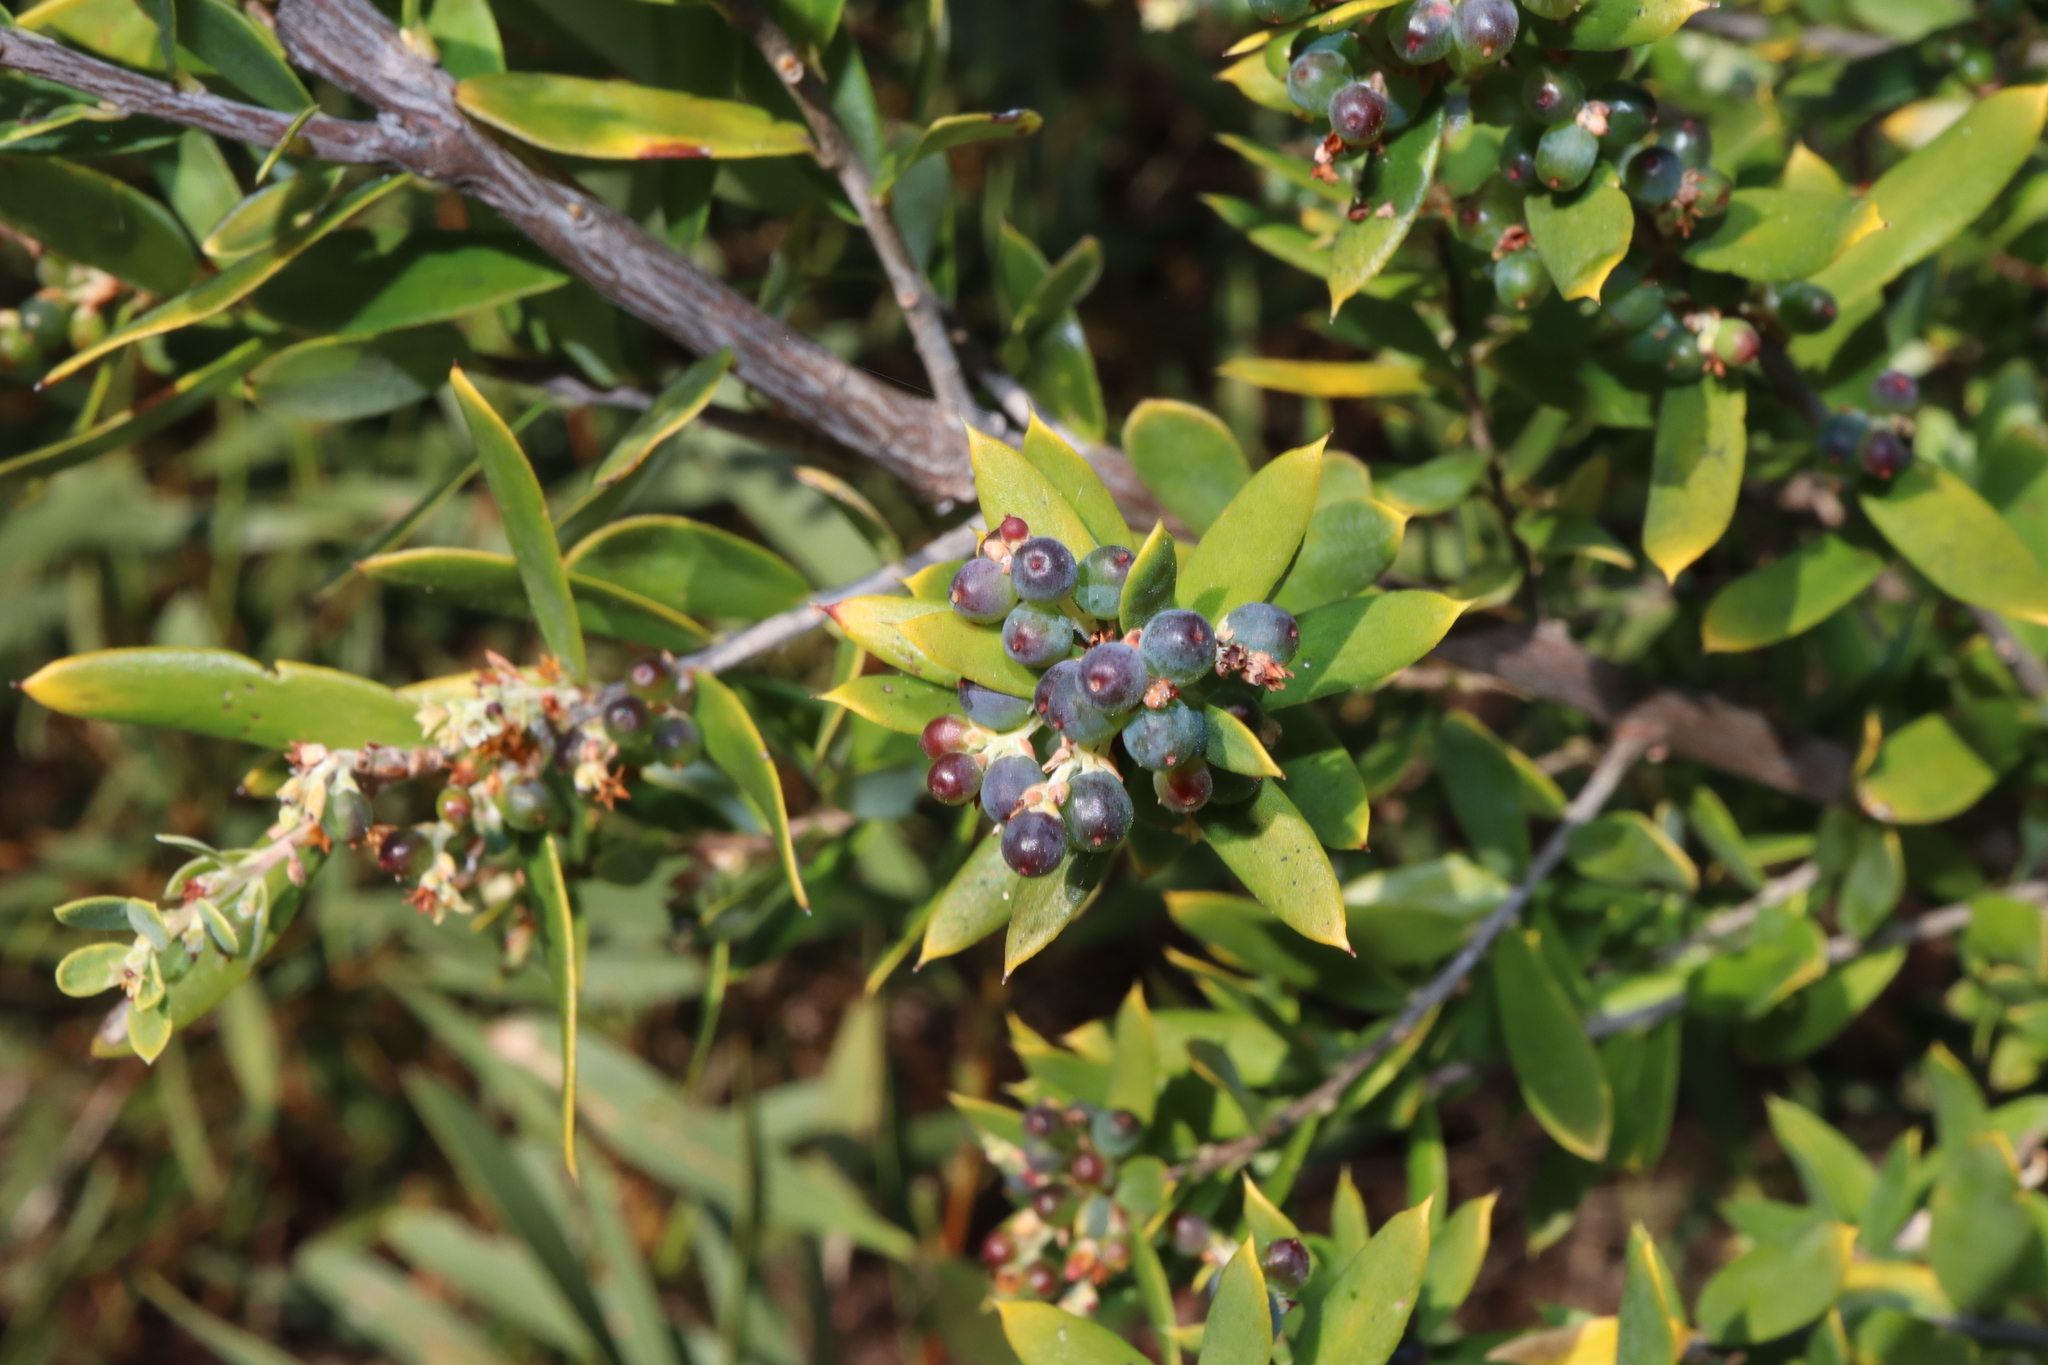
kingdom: Plantae
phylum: Tracheophyta
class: Magnoliopsida
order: Ericales
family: Ericaceae
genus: Monotoca
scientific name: Monotoca elliptica
